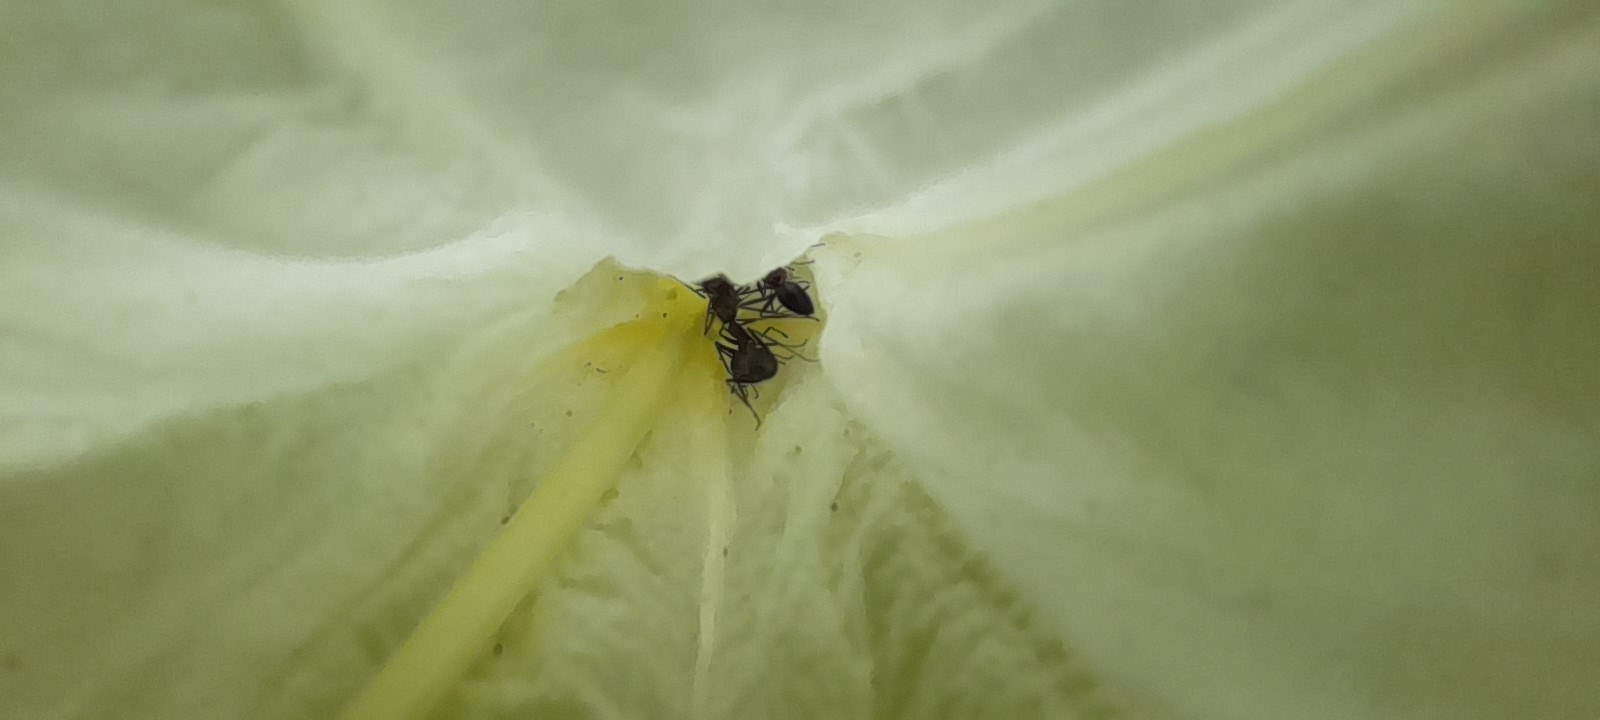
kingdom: Animalia
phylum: Arthropoda
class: Insecta
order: Hymenoptera
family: Formicidae
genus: Paratrechina
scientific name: Paratrechina longicornis
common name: Longhorned crazy ant
